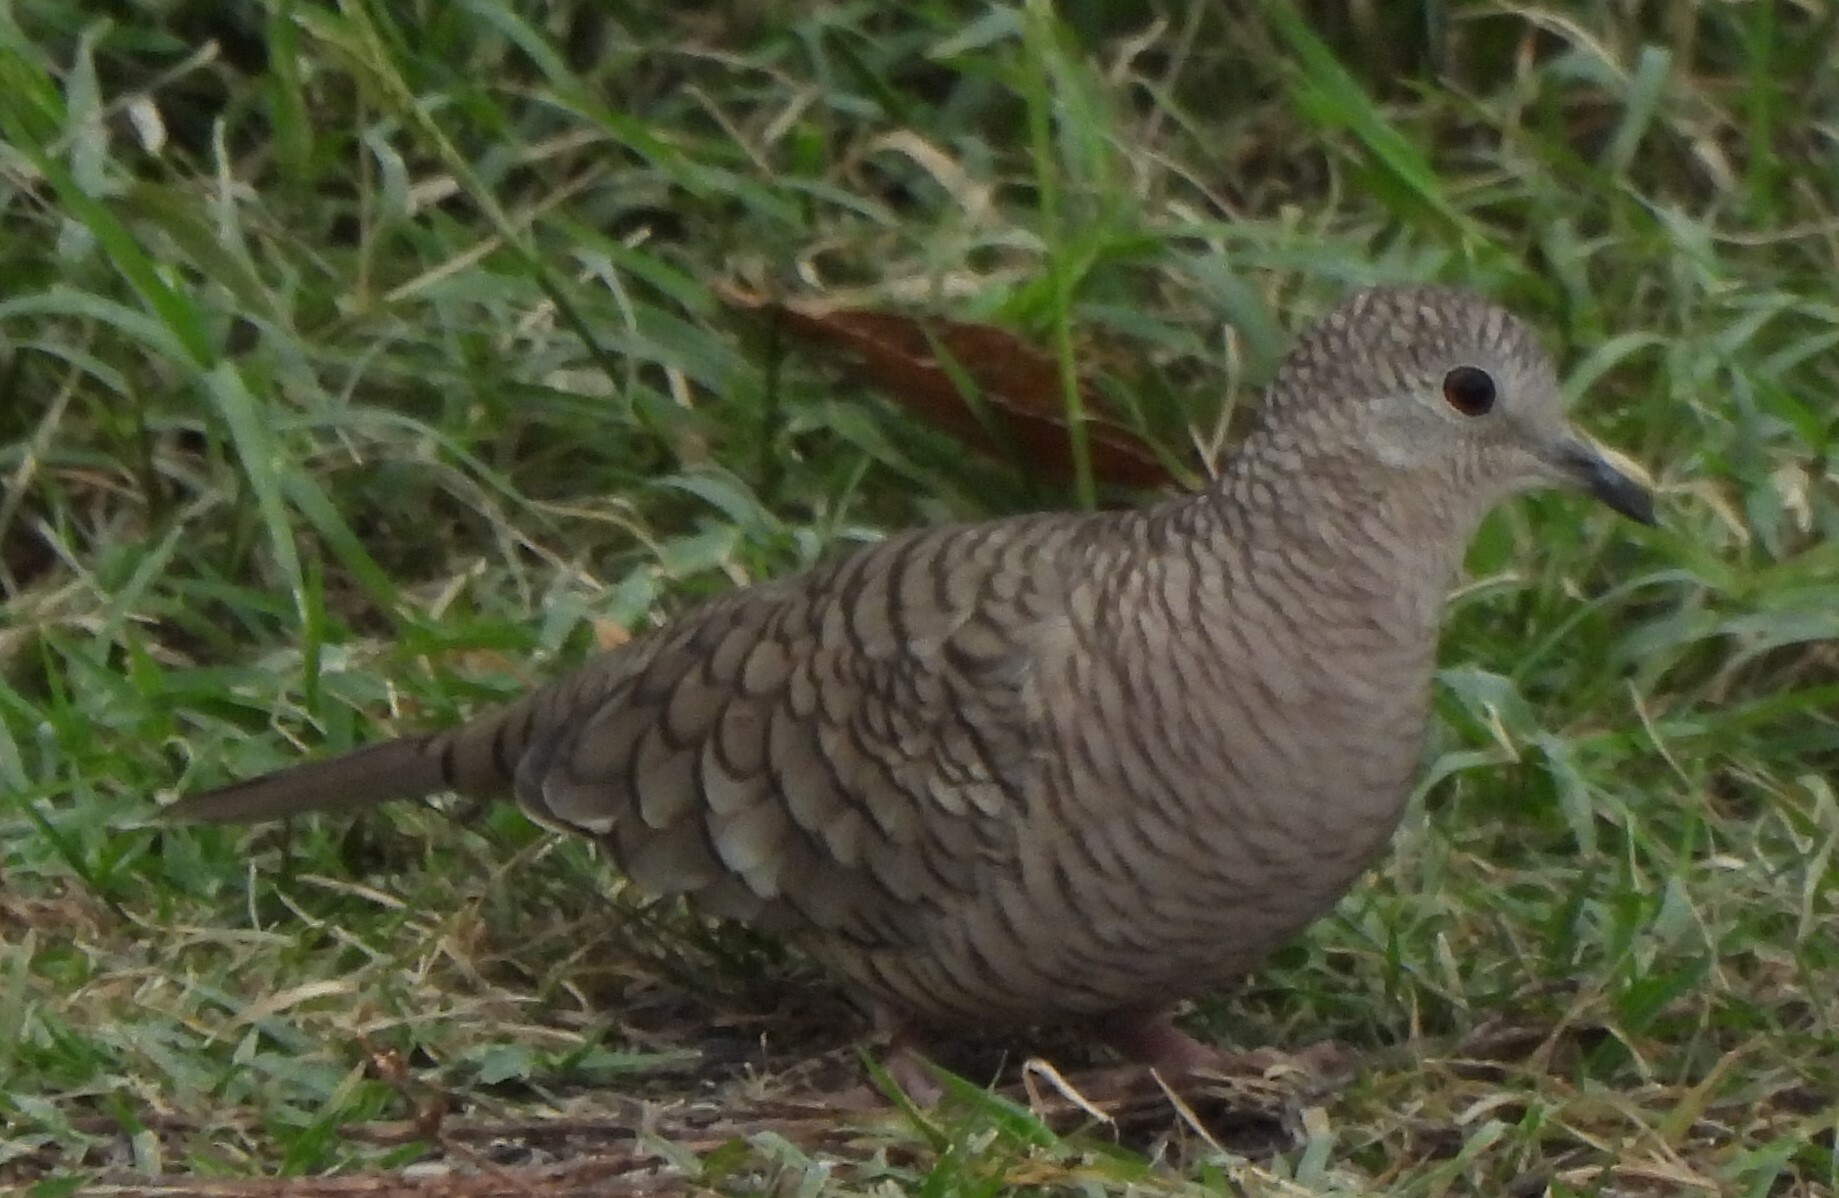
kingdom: Animalia
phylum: Chordata
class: Aves
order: Columbiformes
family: Columbidae
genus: Columbina
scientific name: Columbina inca
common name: Inca dove
